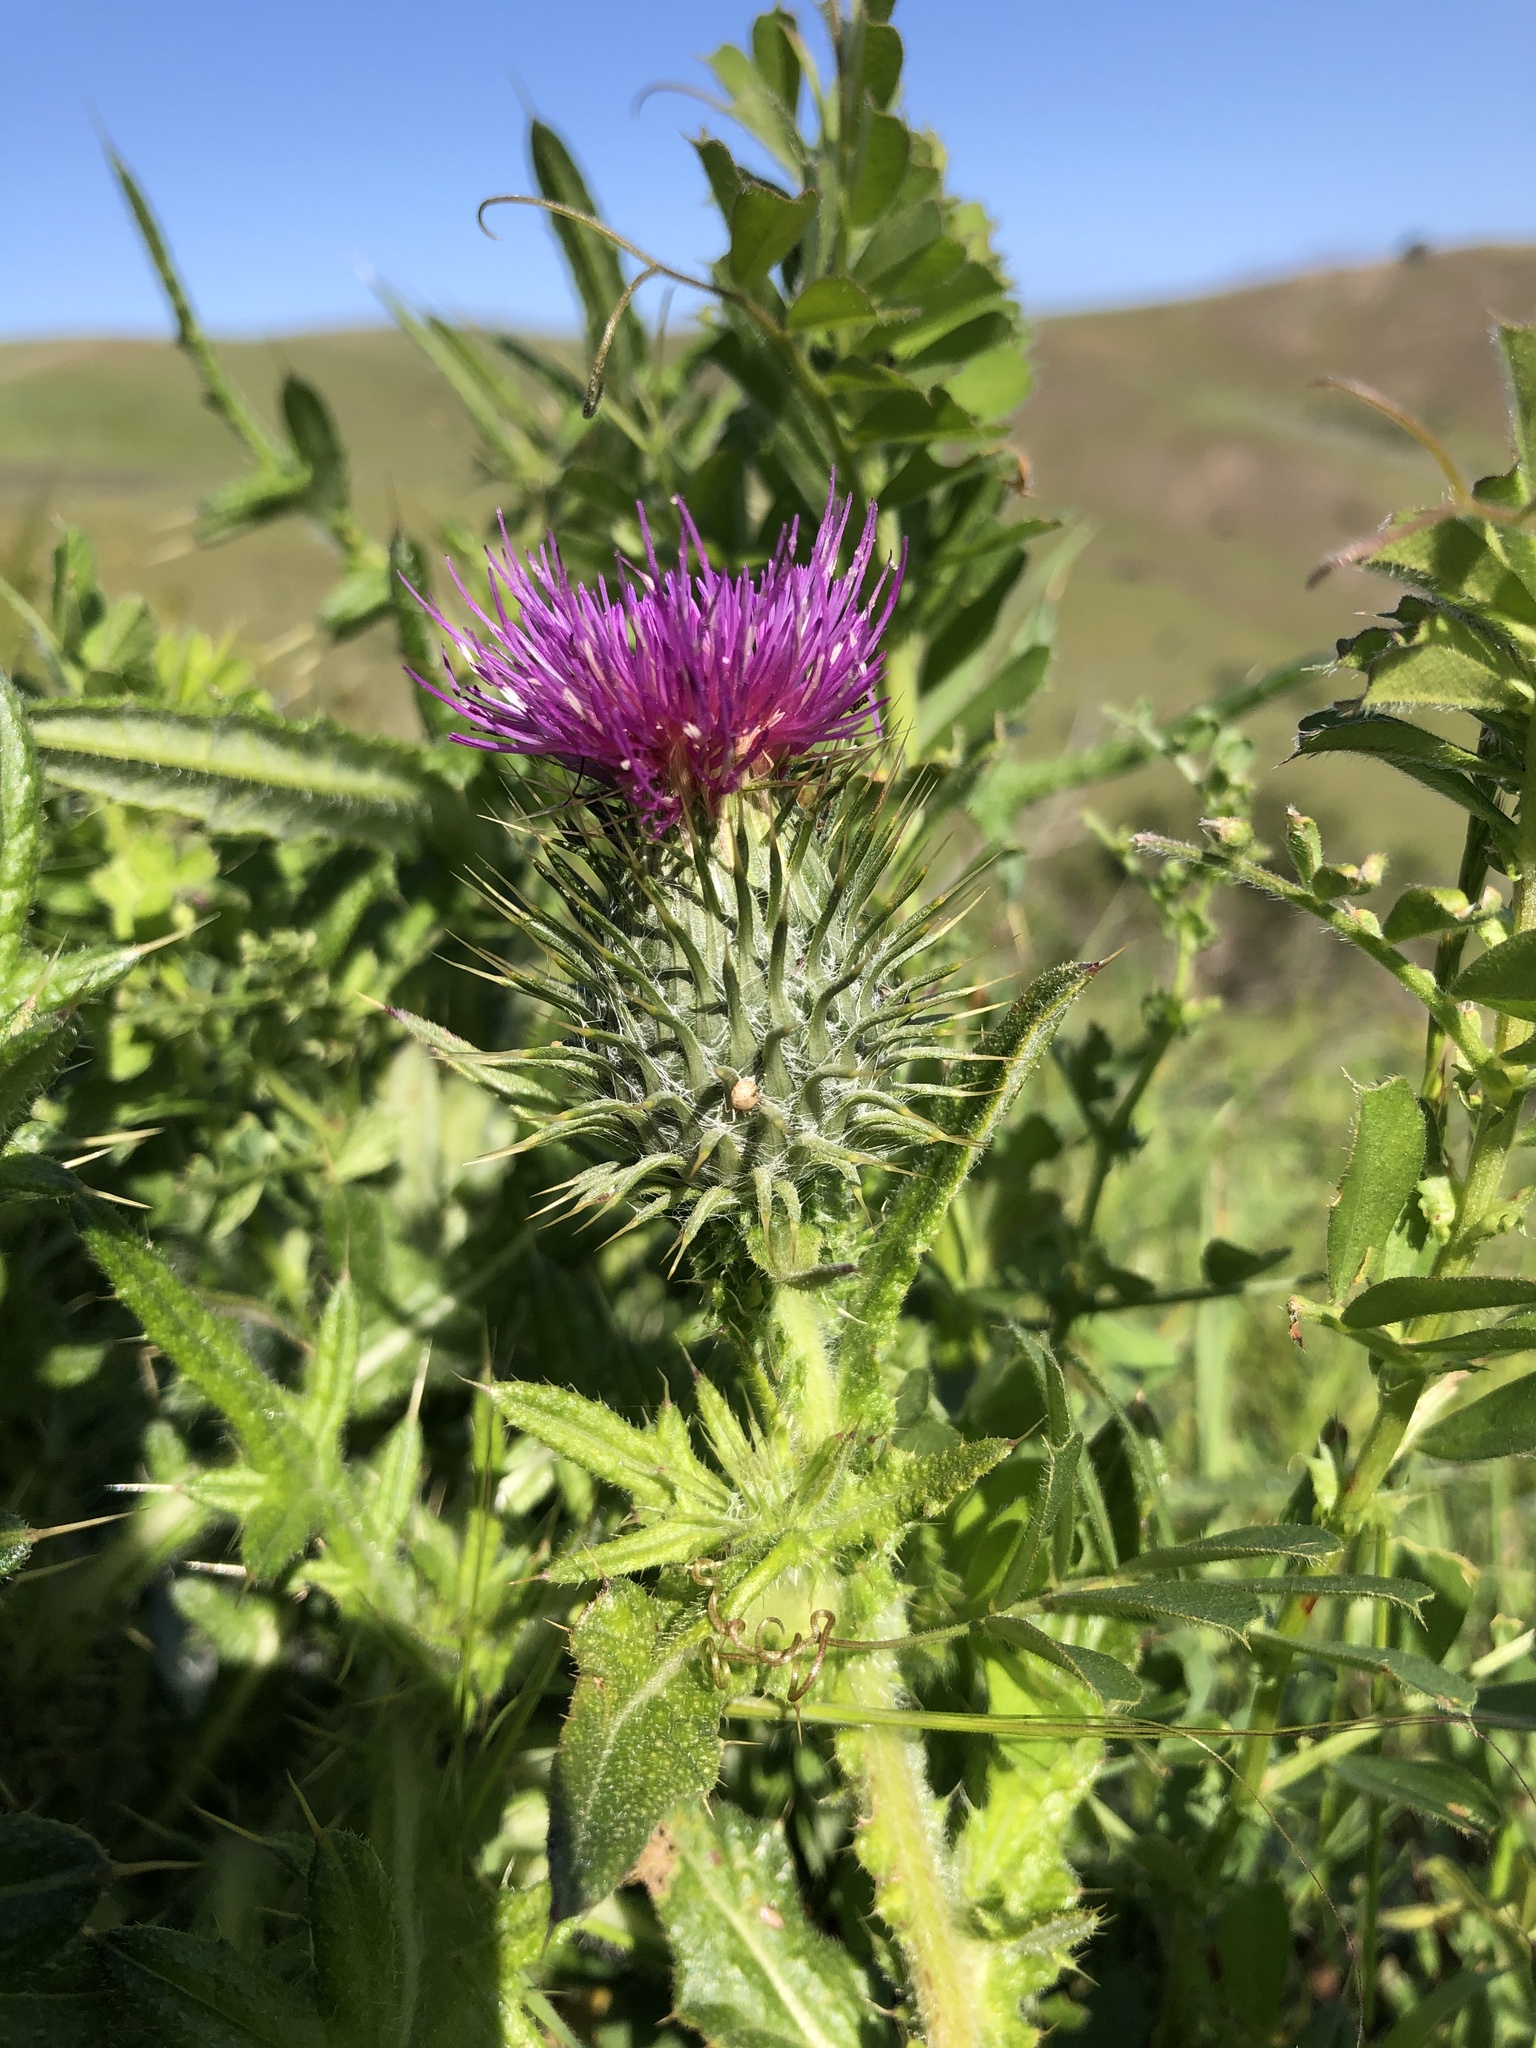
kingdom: Plantae
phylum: Tracheophyta
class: Magnoliopsida
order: Asterales
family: Asteraceae
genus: Cirsium
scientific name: Cirsium vulgare
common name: Bull thistle
